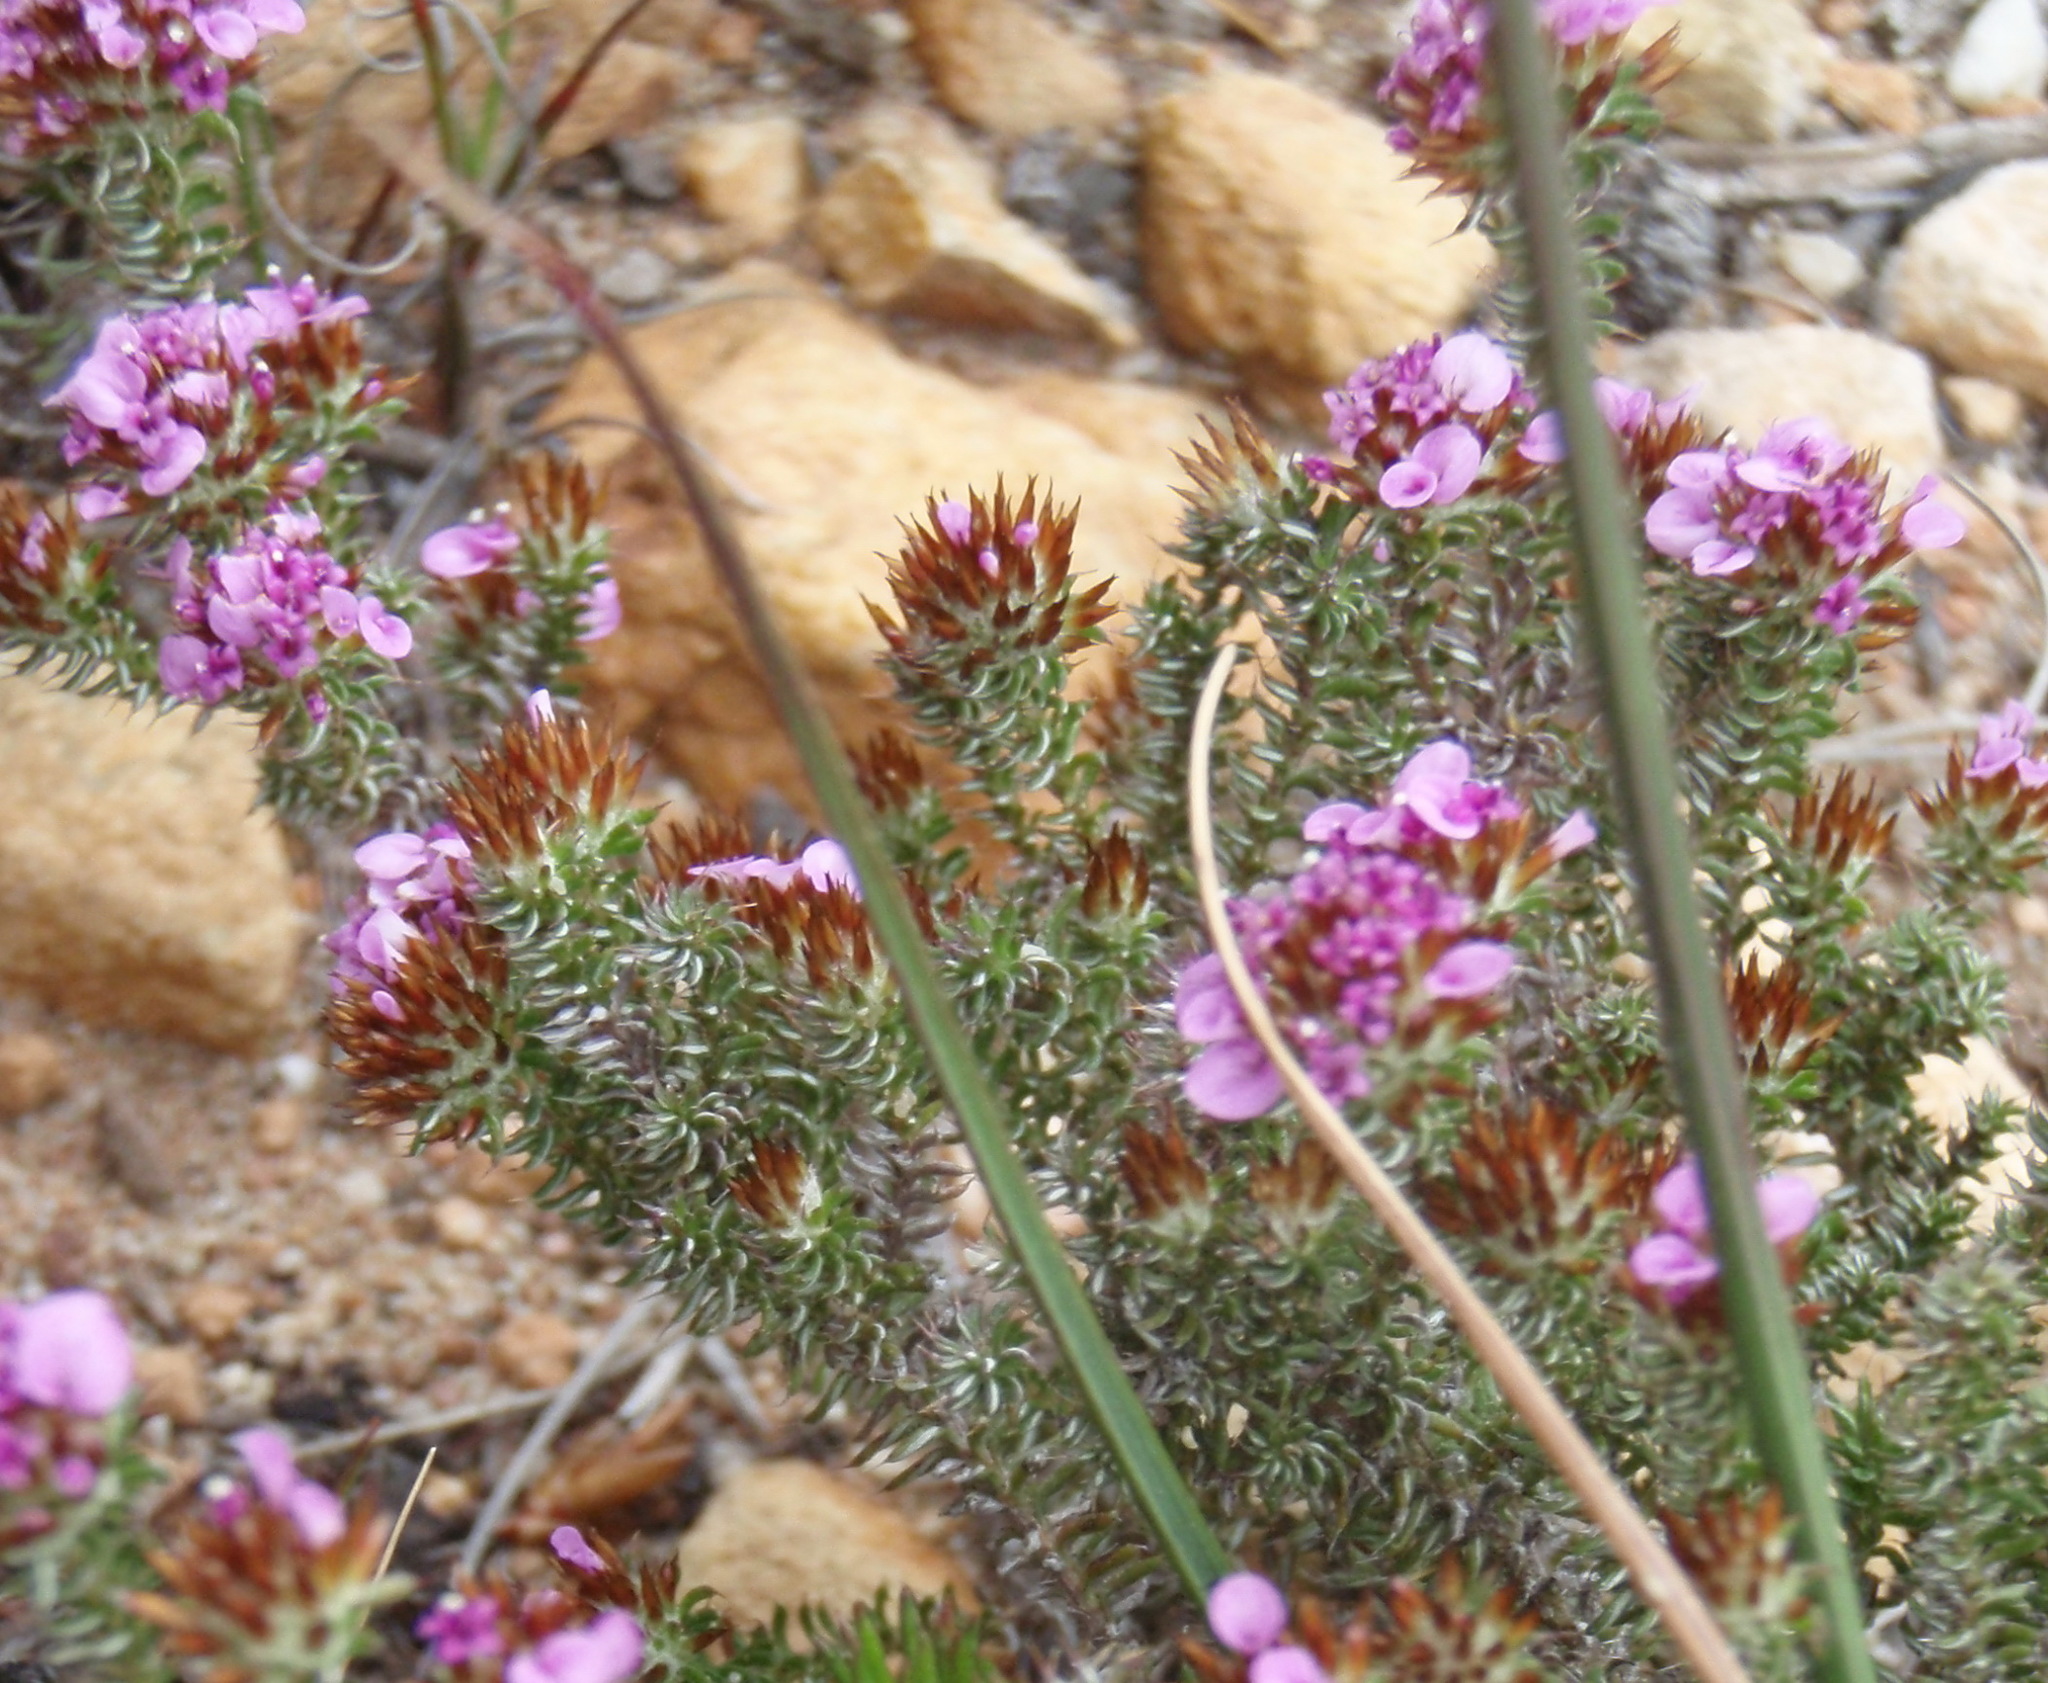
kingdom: Plantae
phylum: Tracheophyta
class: Magnoliopsida
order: Asterales
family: Asteraceae
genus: Disparago
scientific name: Disparago tortilis
